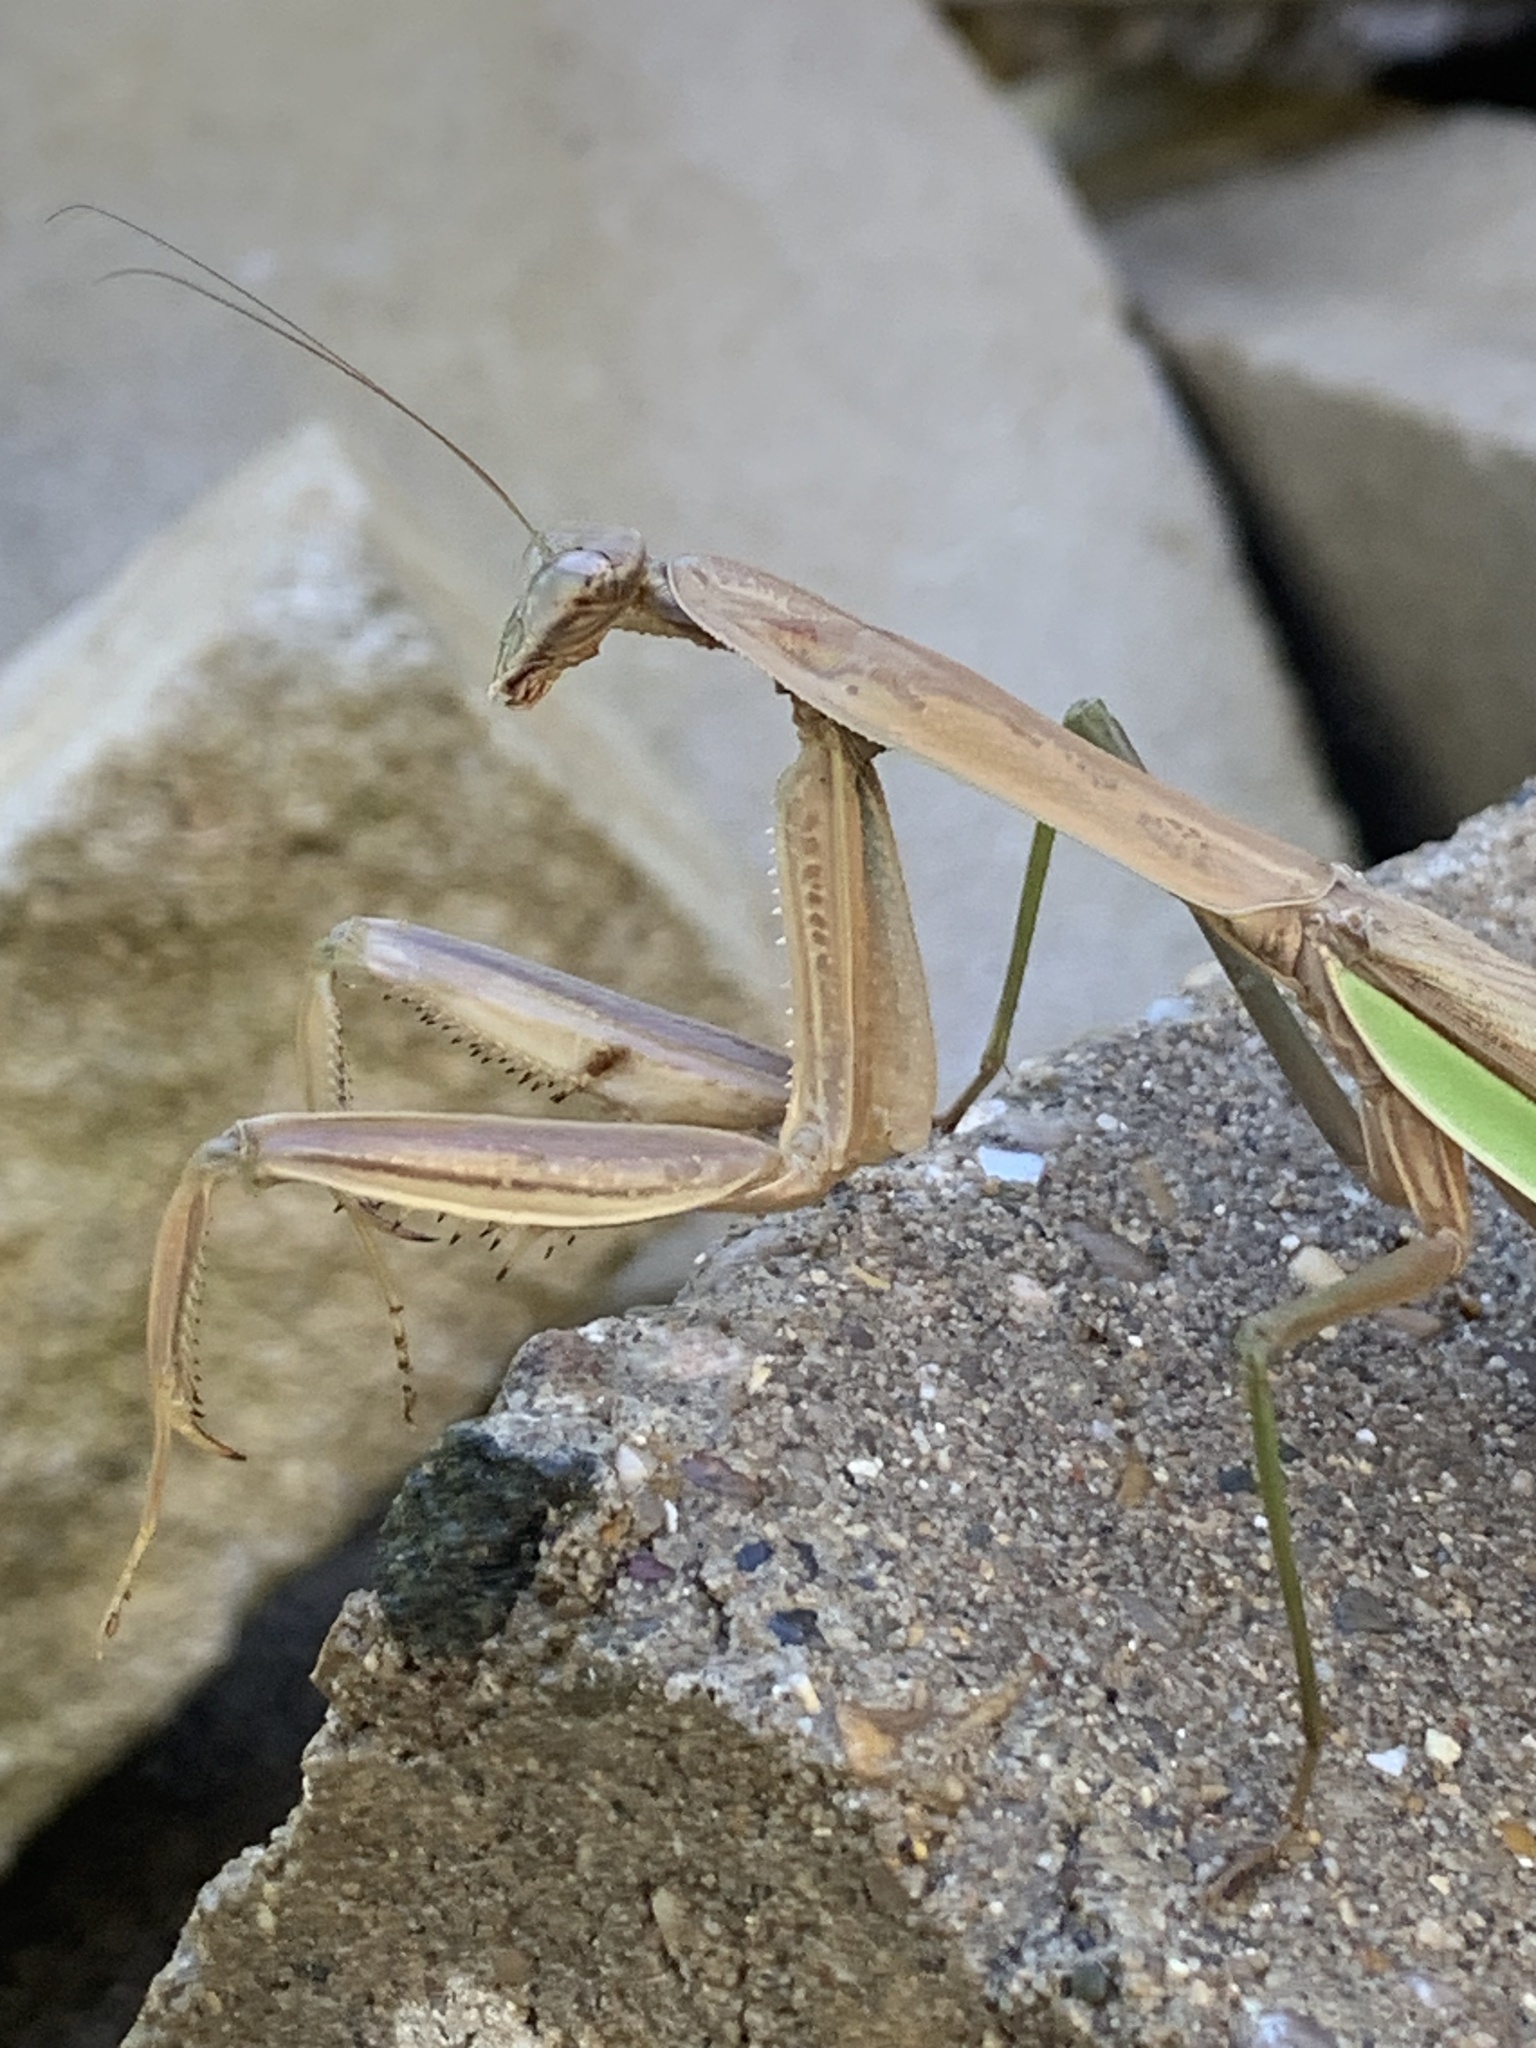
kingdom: Animalia
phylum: Arthropoda
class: Insecta
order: Mantodea
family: Mantidae
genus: Tenodera
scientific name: Tenodera sinensis
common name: Chinese mantis
